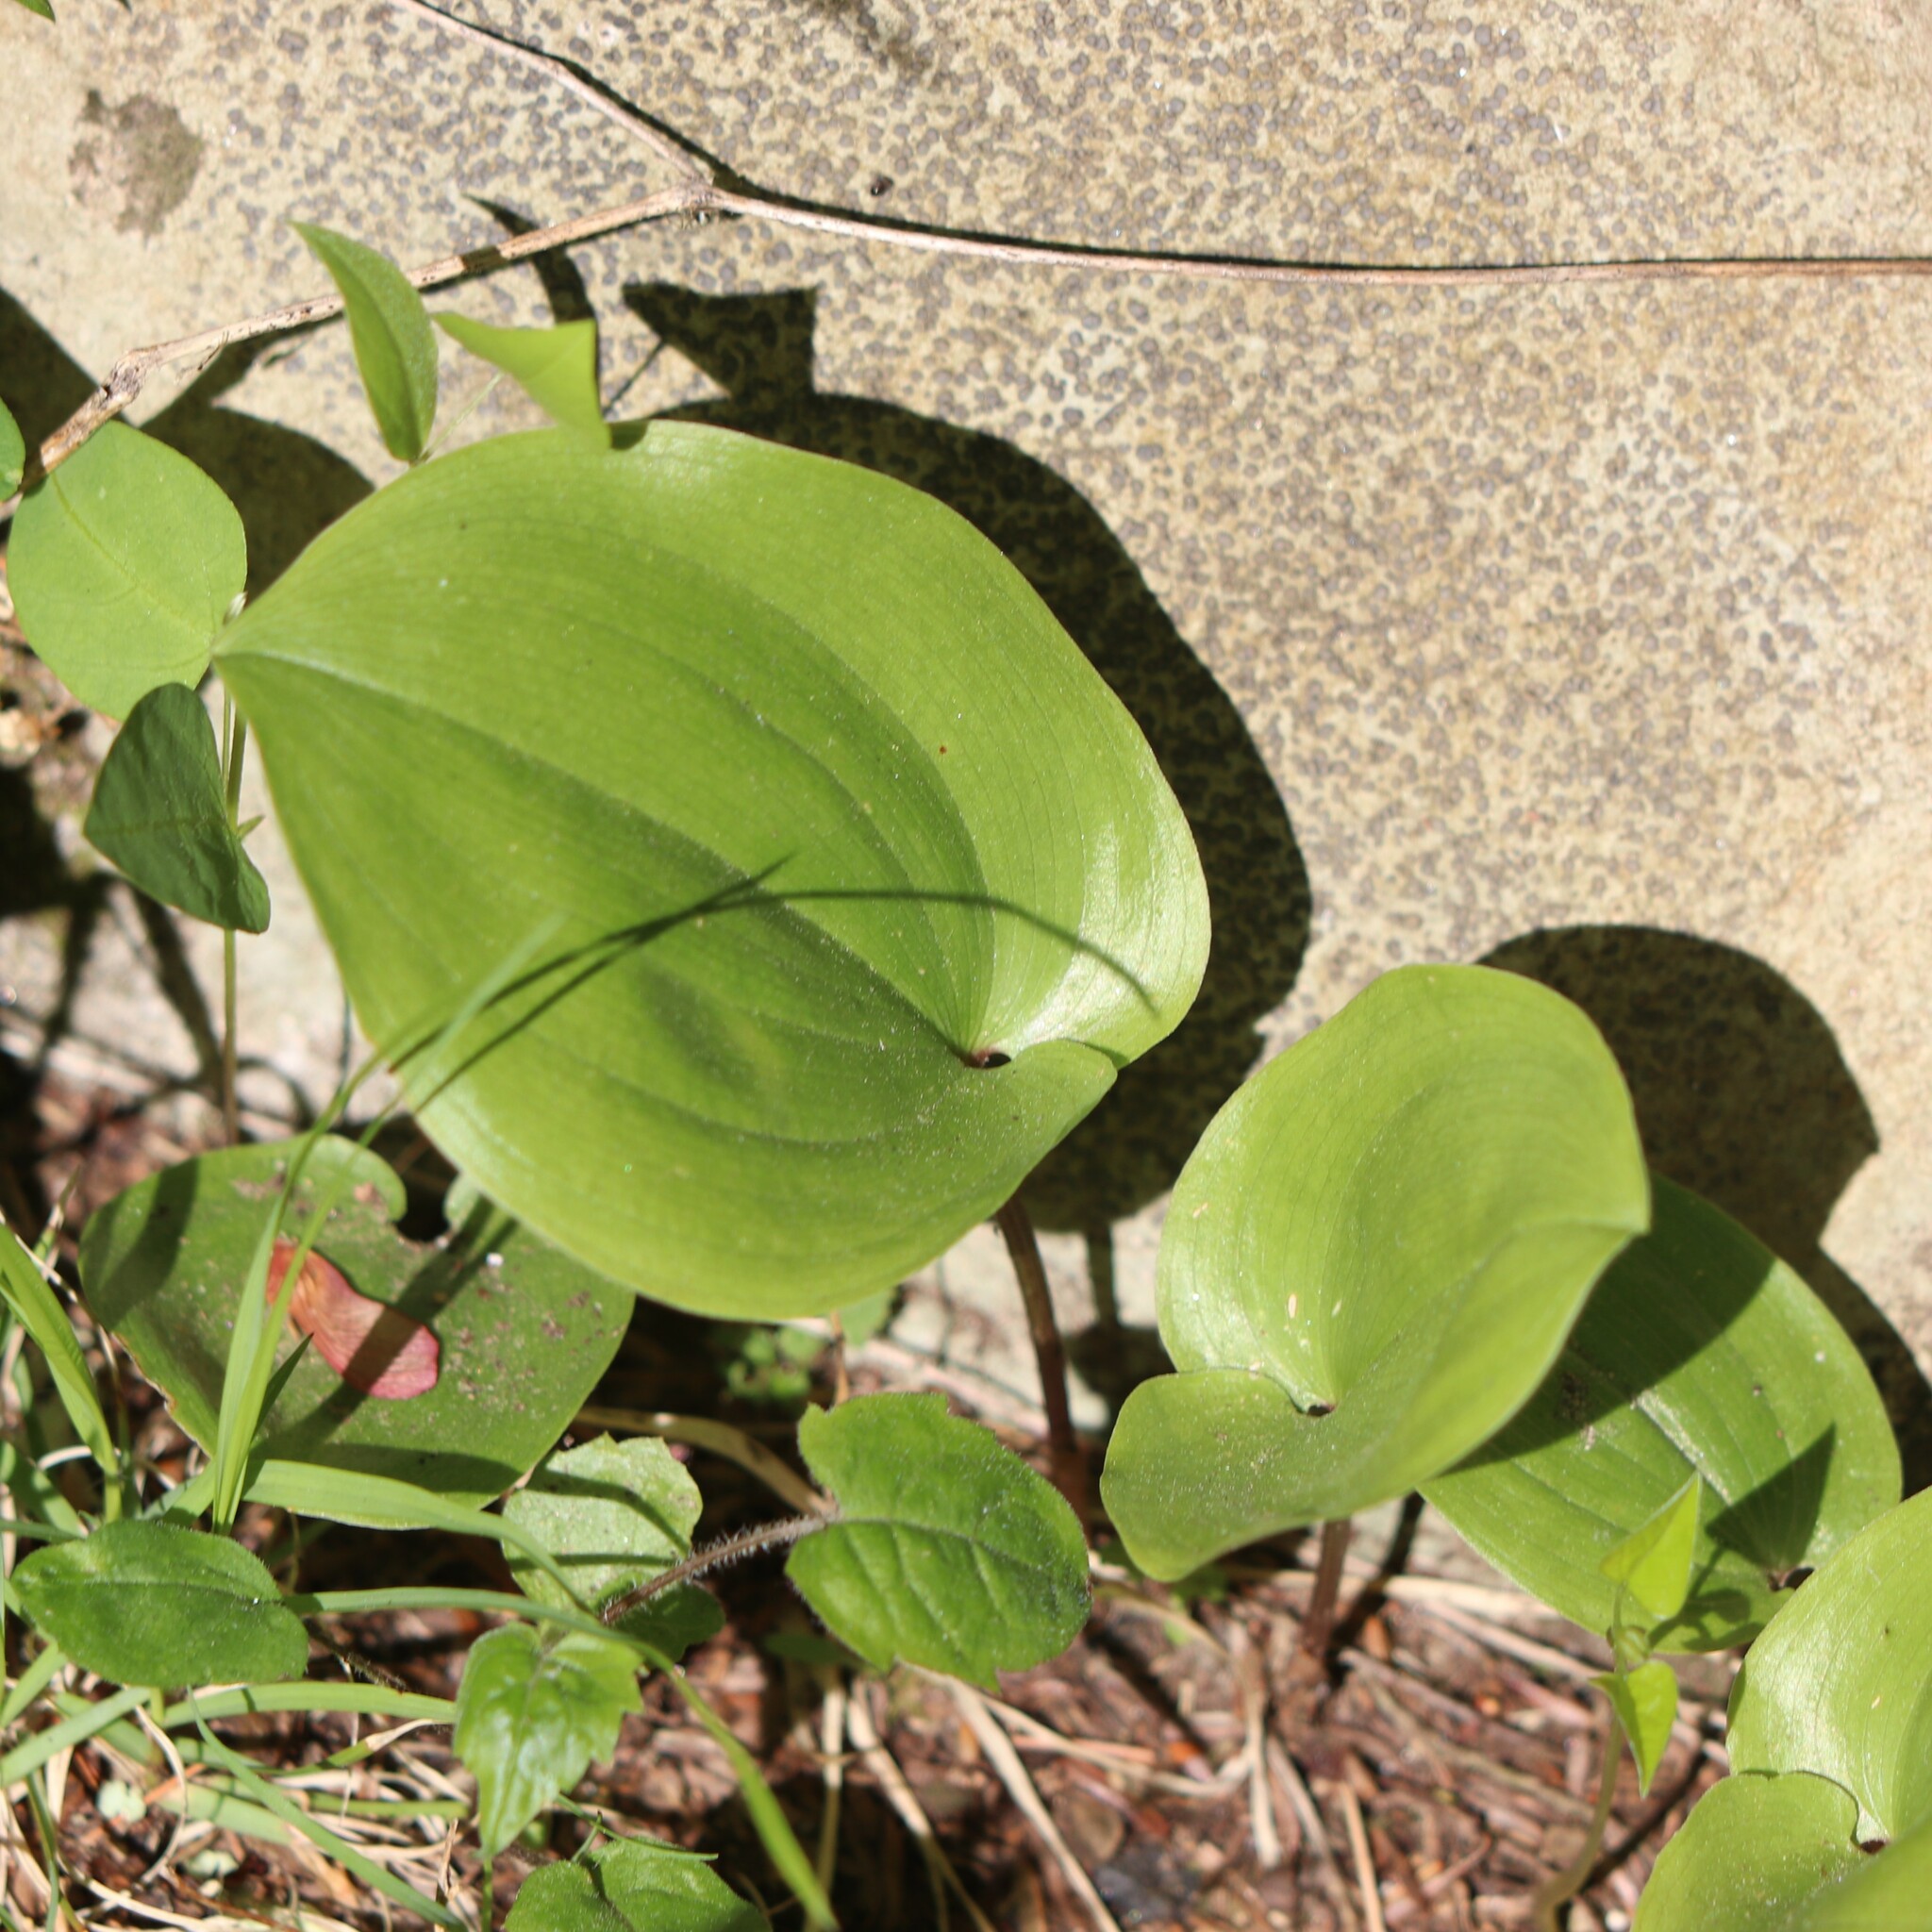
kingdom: Plantae
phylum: Tracheophyta
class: Liliopsida
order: Asparagales
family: Asparagaceae
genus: Maianthemum
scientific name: Maianthemum canadense
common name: False lily-of-the-valley
